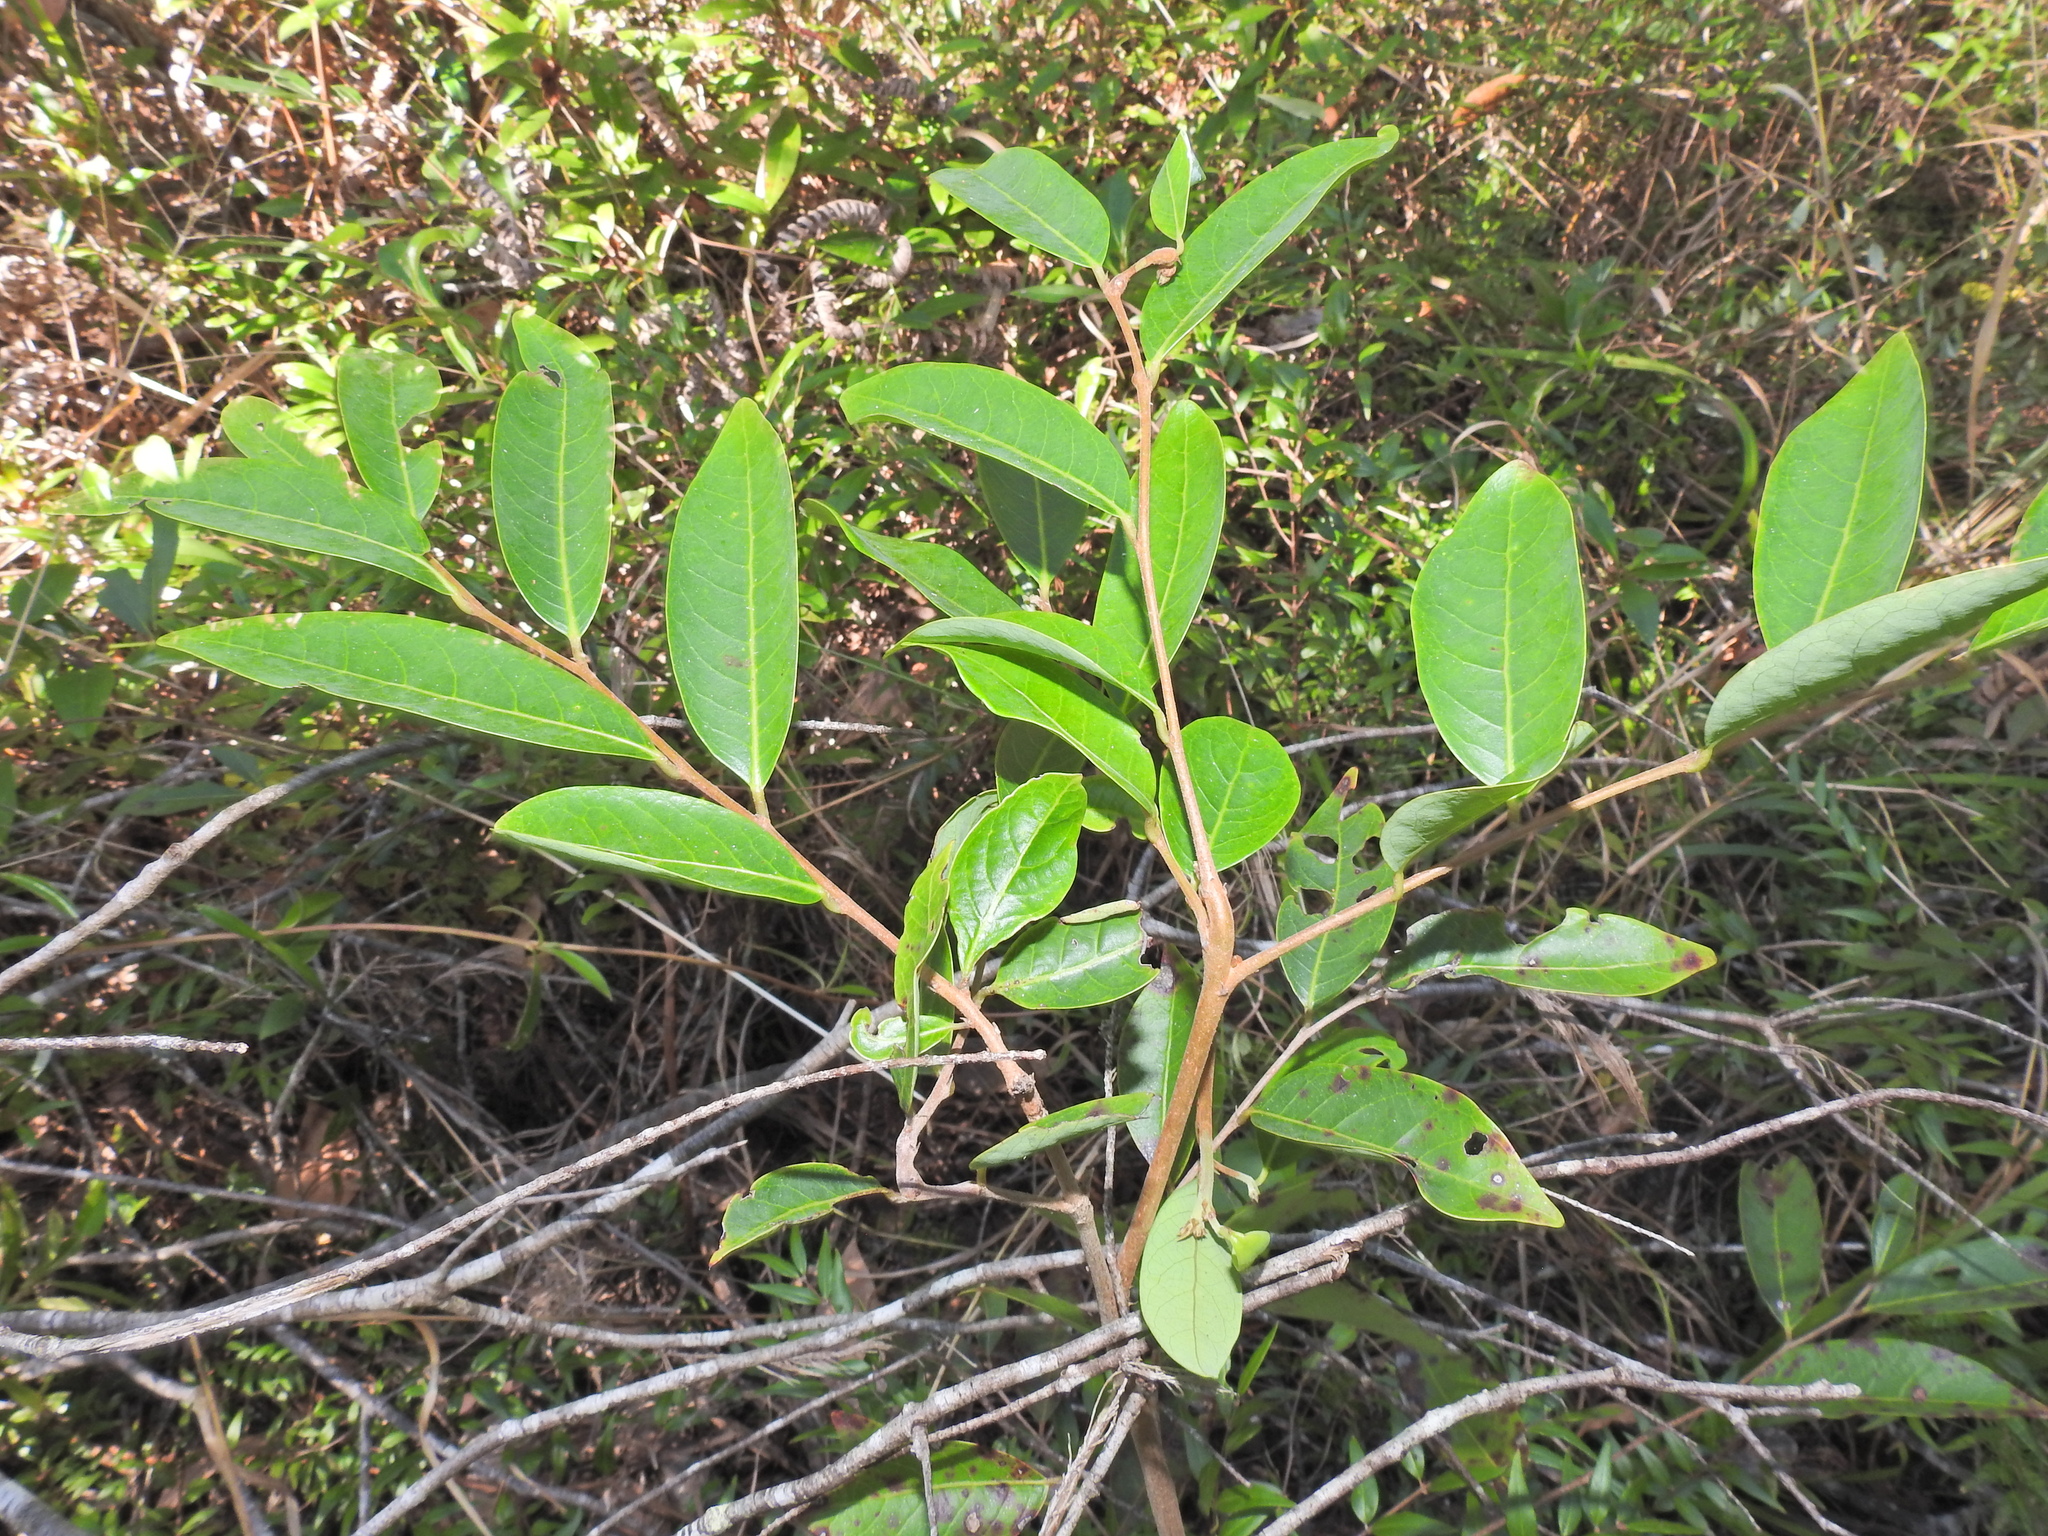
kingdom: Plantae
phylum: Tracheophyta
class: Magnoliopsida
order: Malpighiales
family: Phyllanthaceae
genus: Glochidion
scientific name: Glochidion lobocarpum
